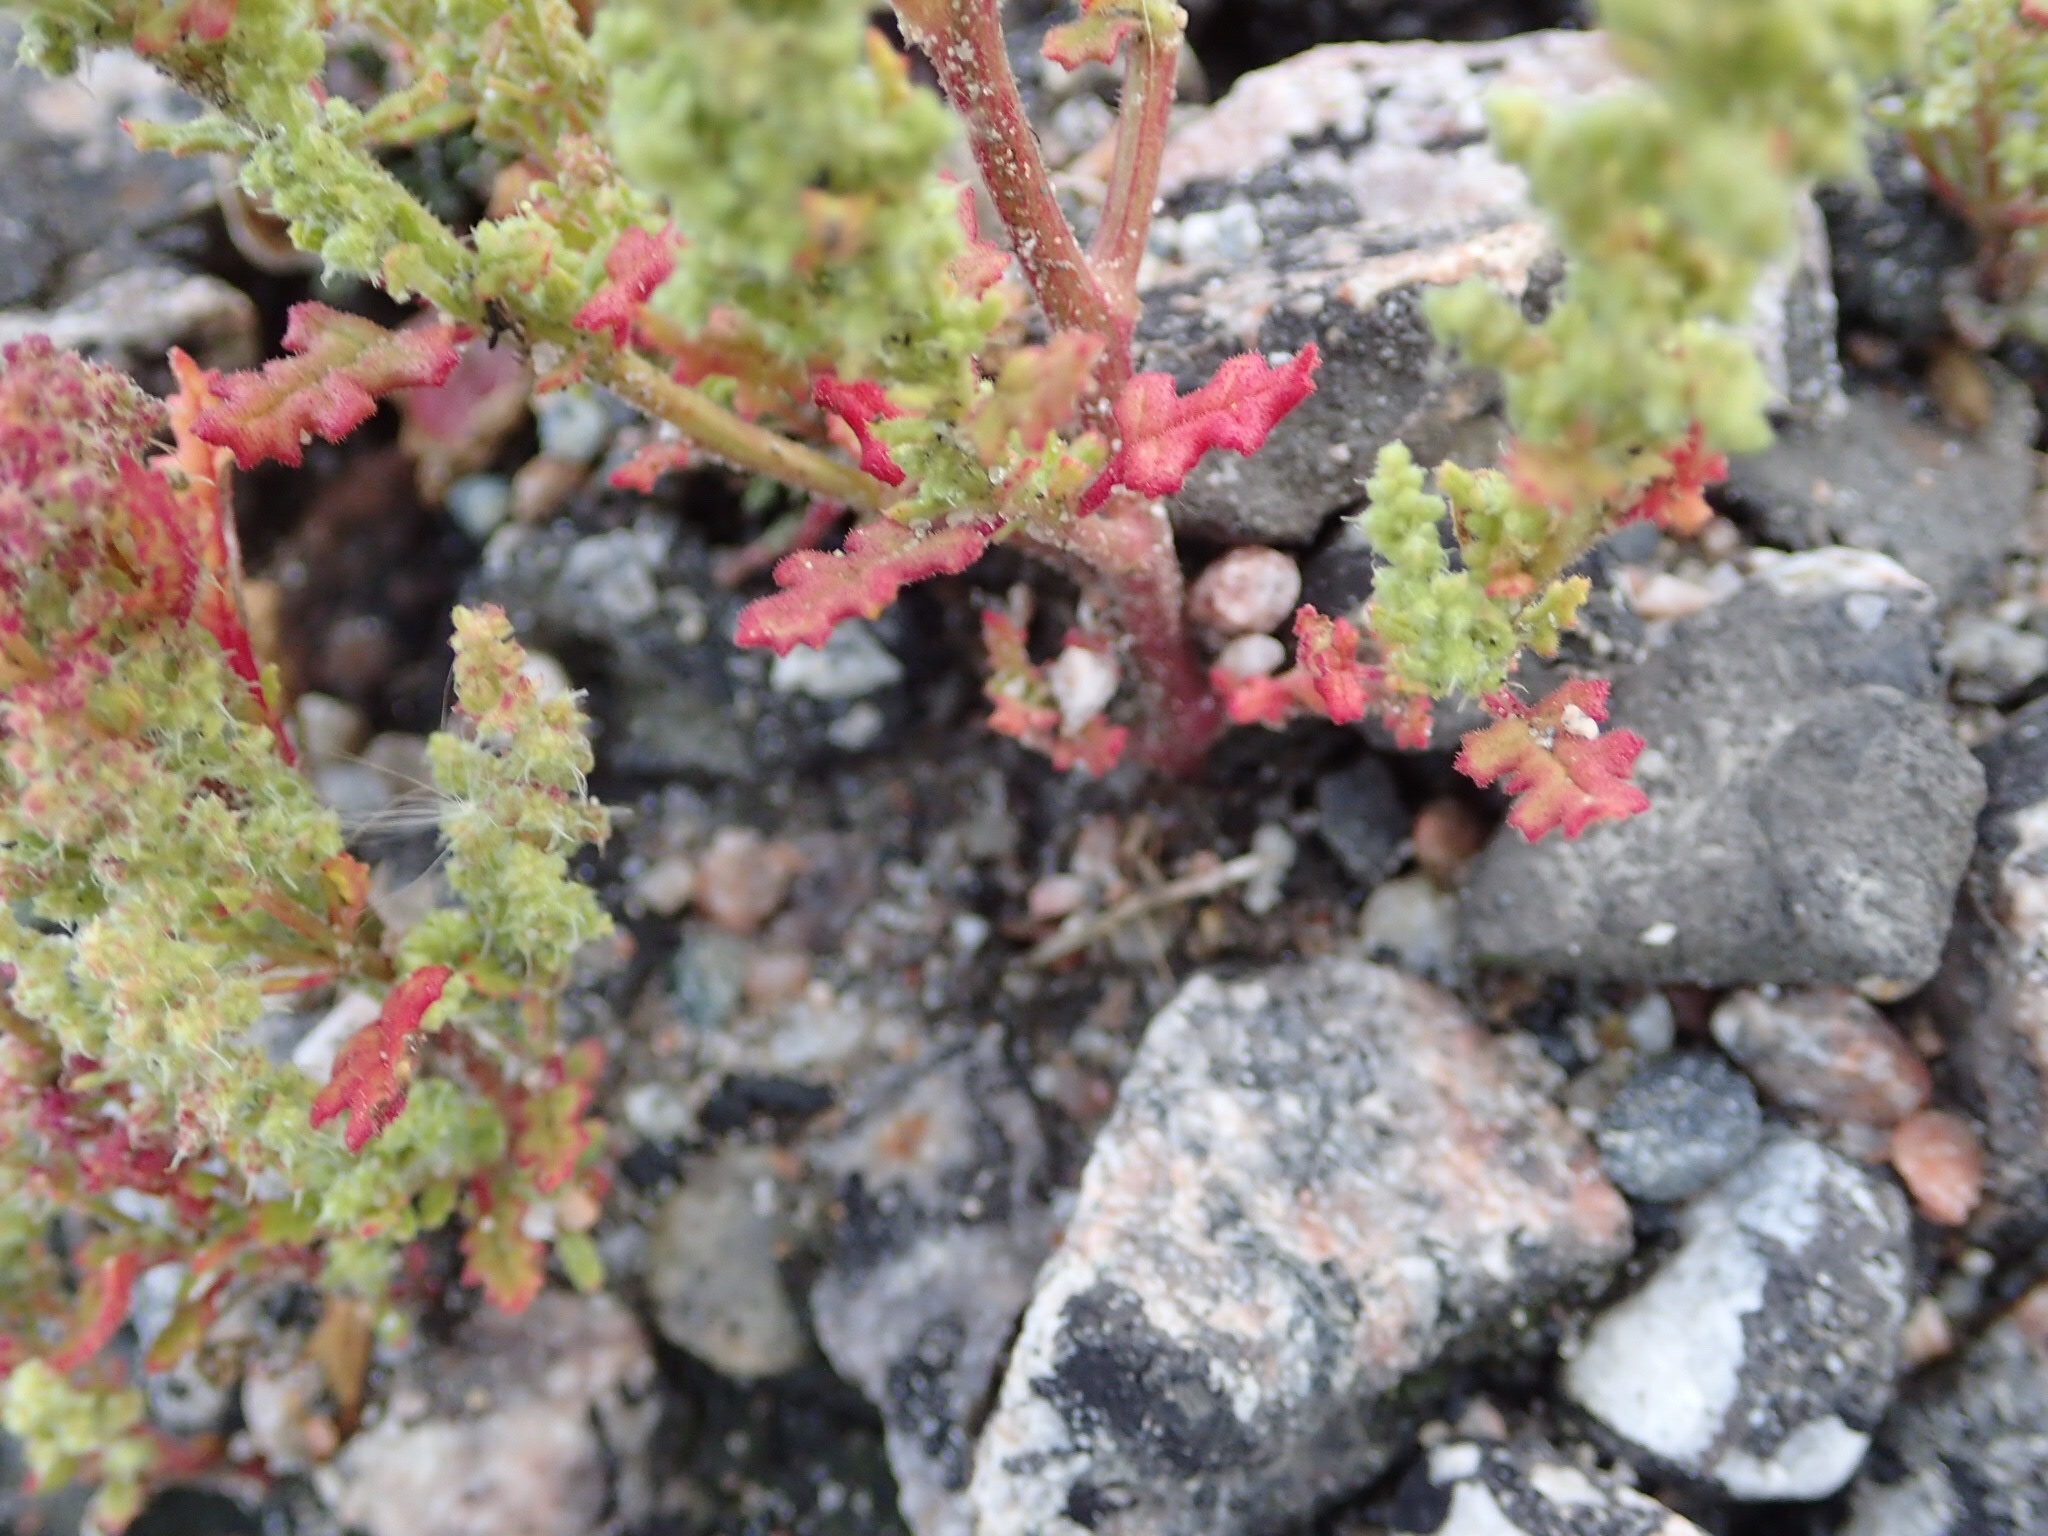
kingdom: Plantae
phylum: Tracheophyta
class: Magnoliopsida
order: Caryophyllales
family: Amaranthaceae
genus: Dysphania
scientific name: Dysphania botrys
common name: Feather-geranium
